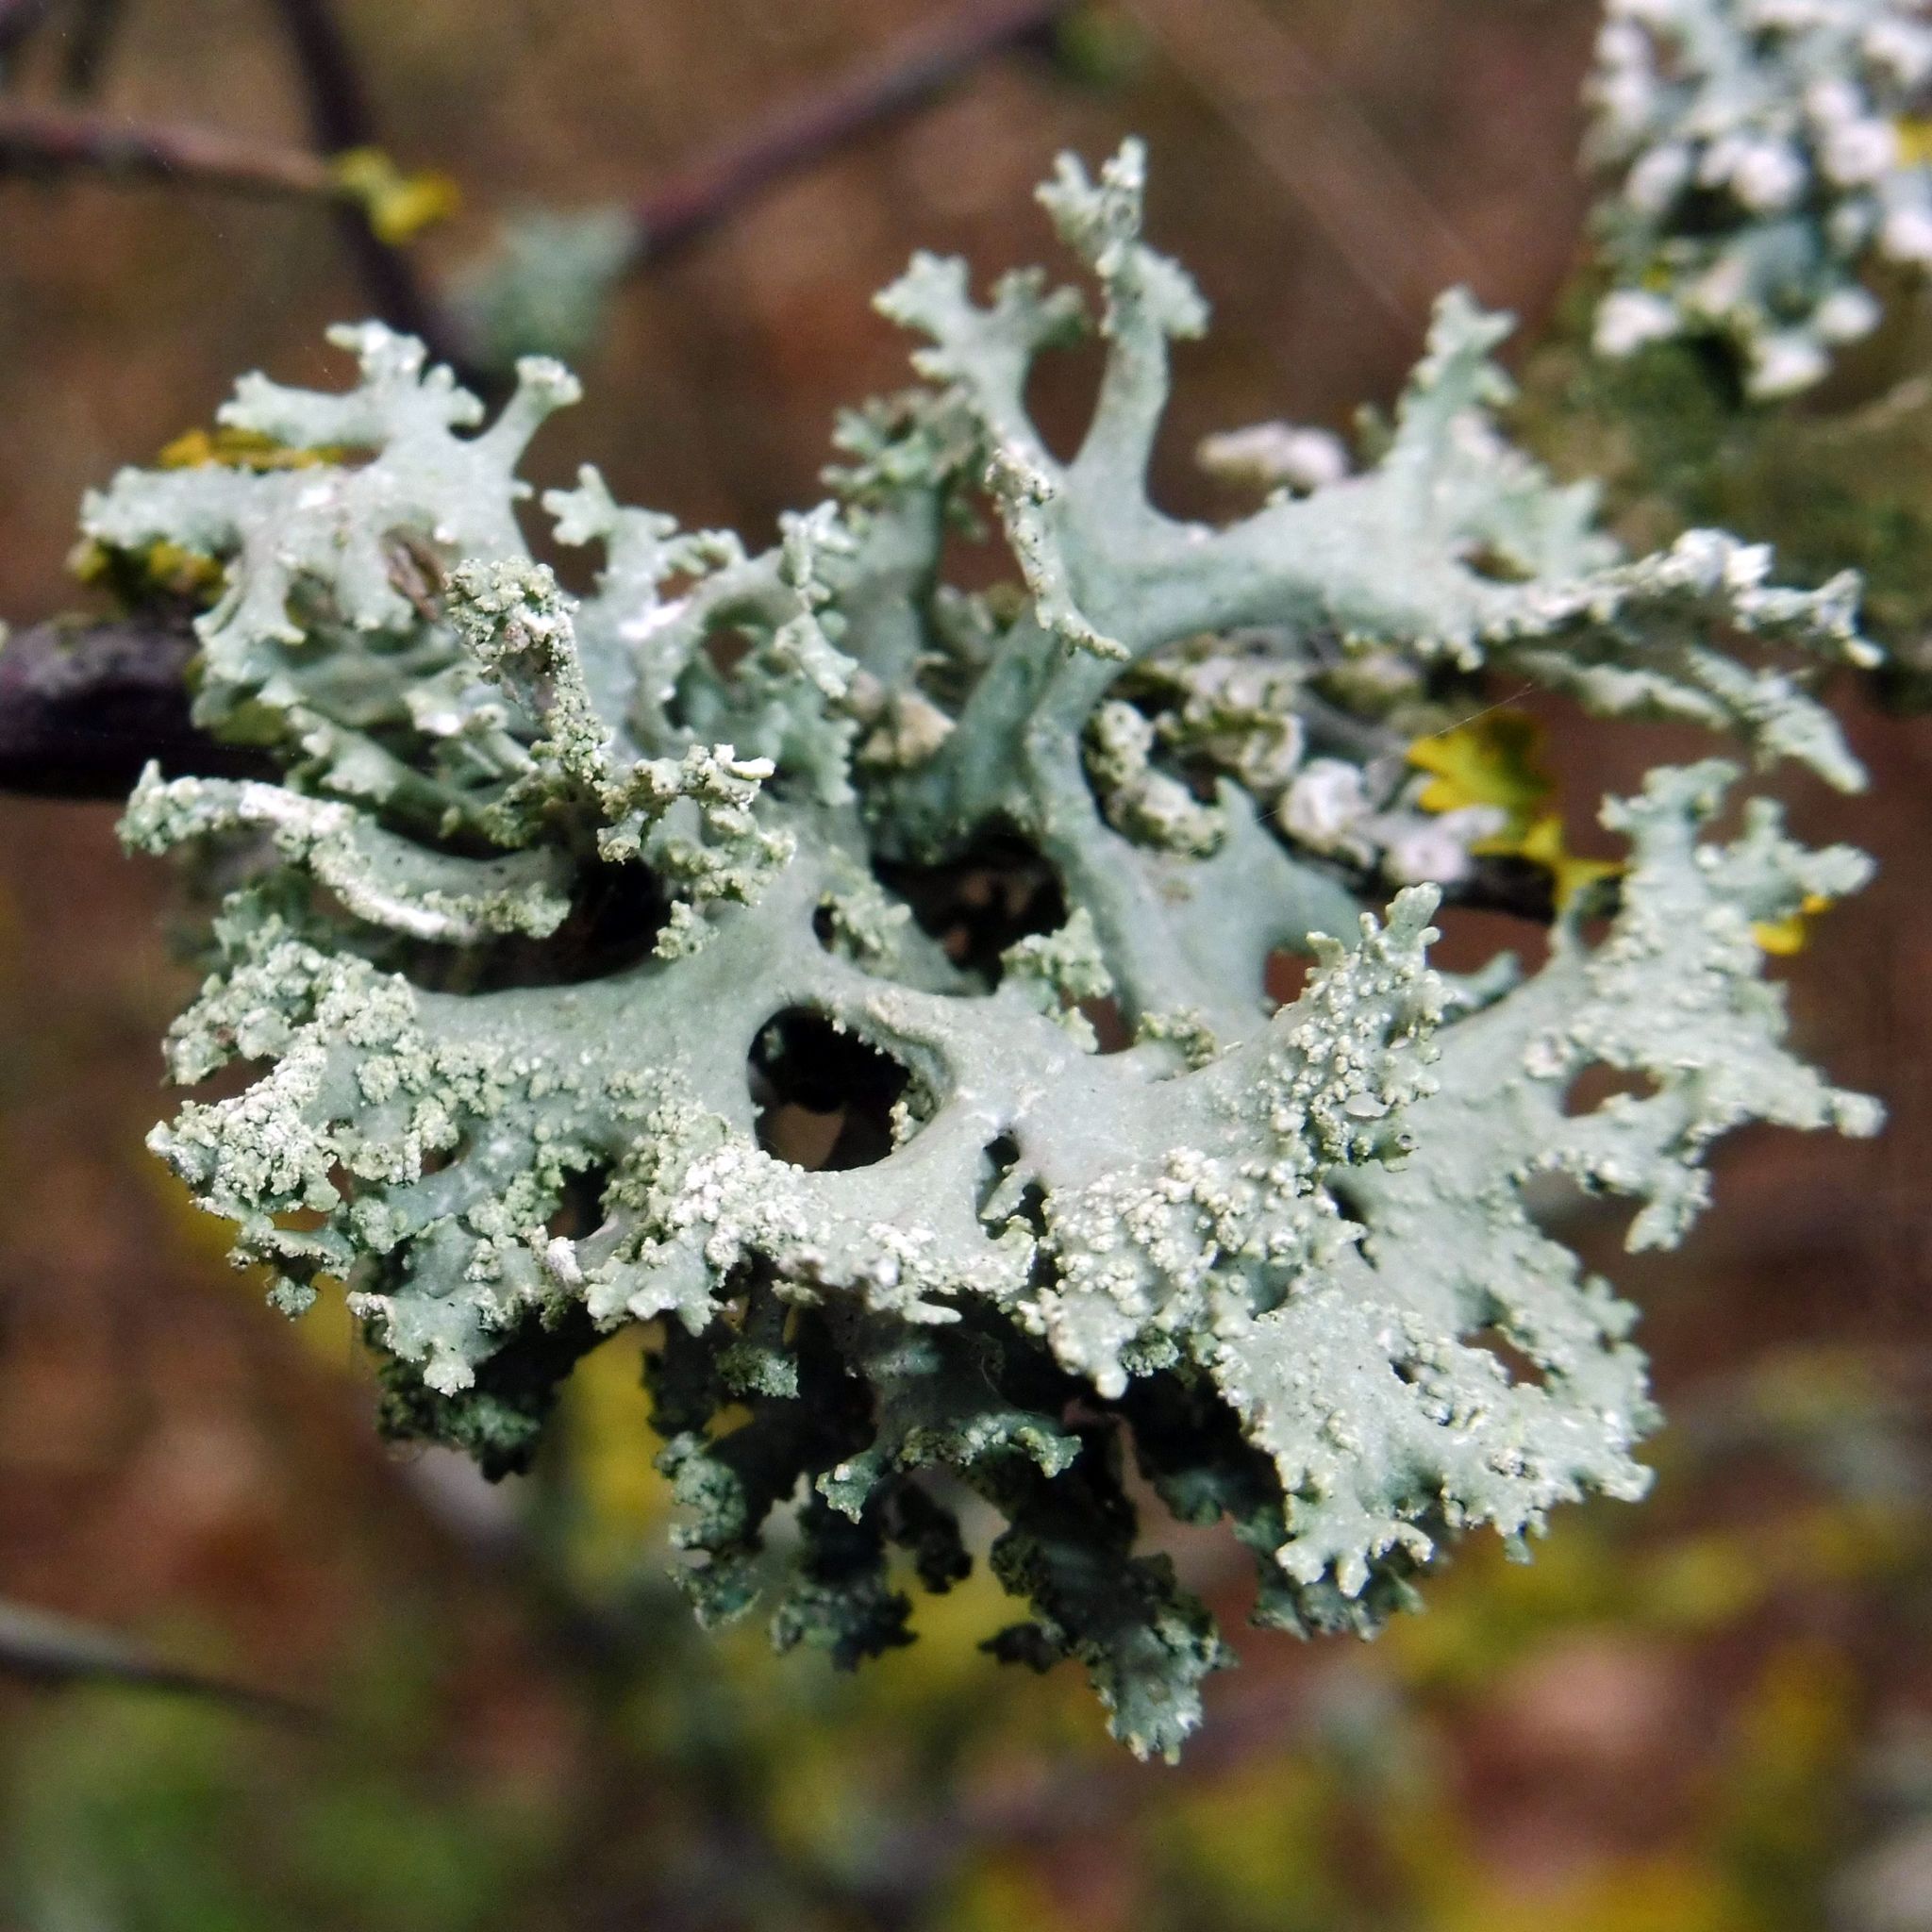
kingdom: Fungi
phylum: Ascomycota
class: Lecanoromycetes
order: Lecanorales
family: Parmeliaceae
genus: Evernia
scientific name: Evernia prunastri
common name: Oak moss
